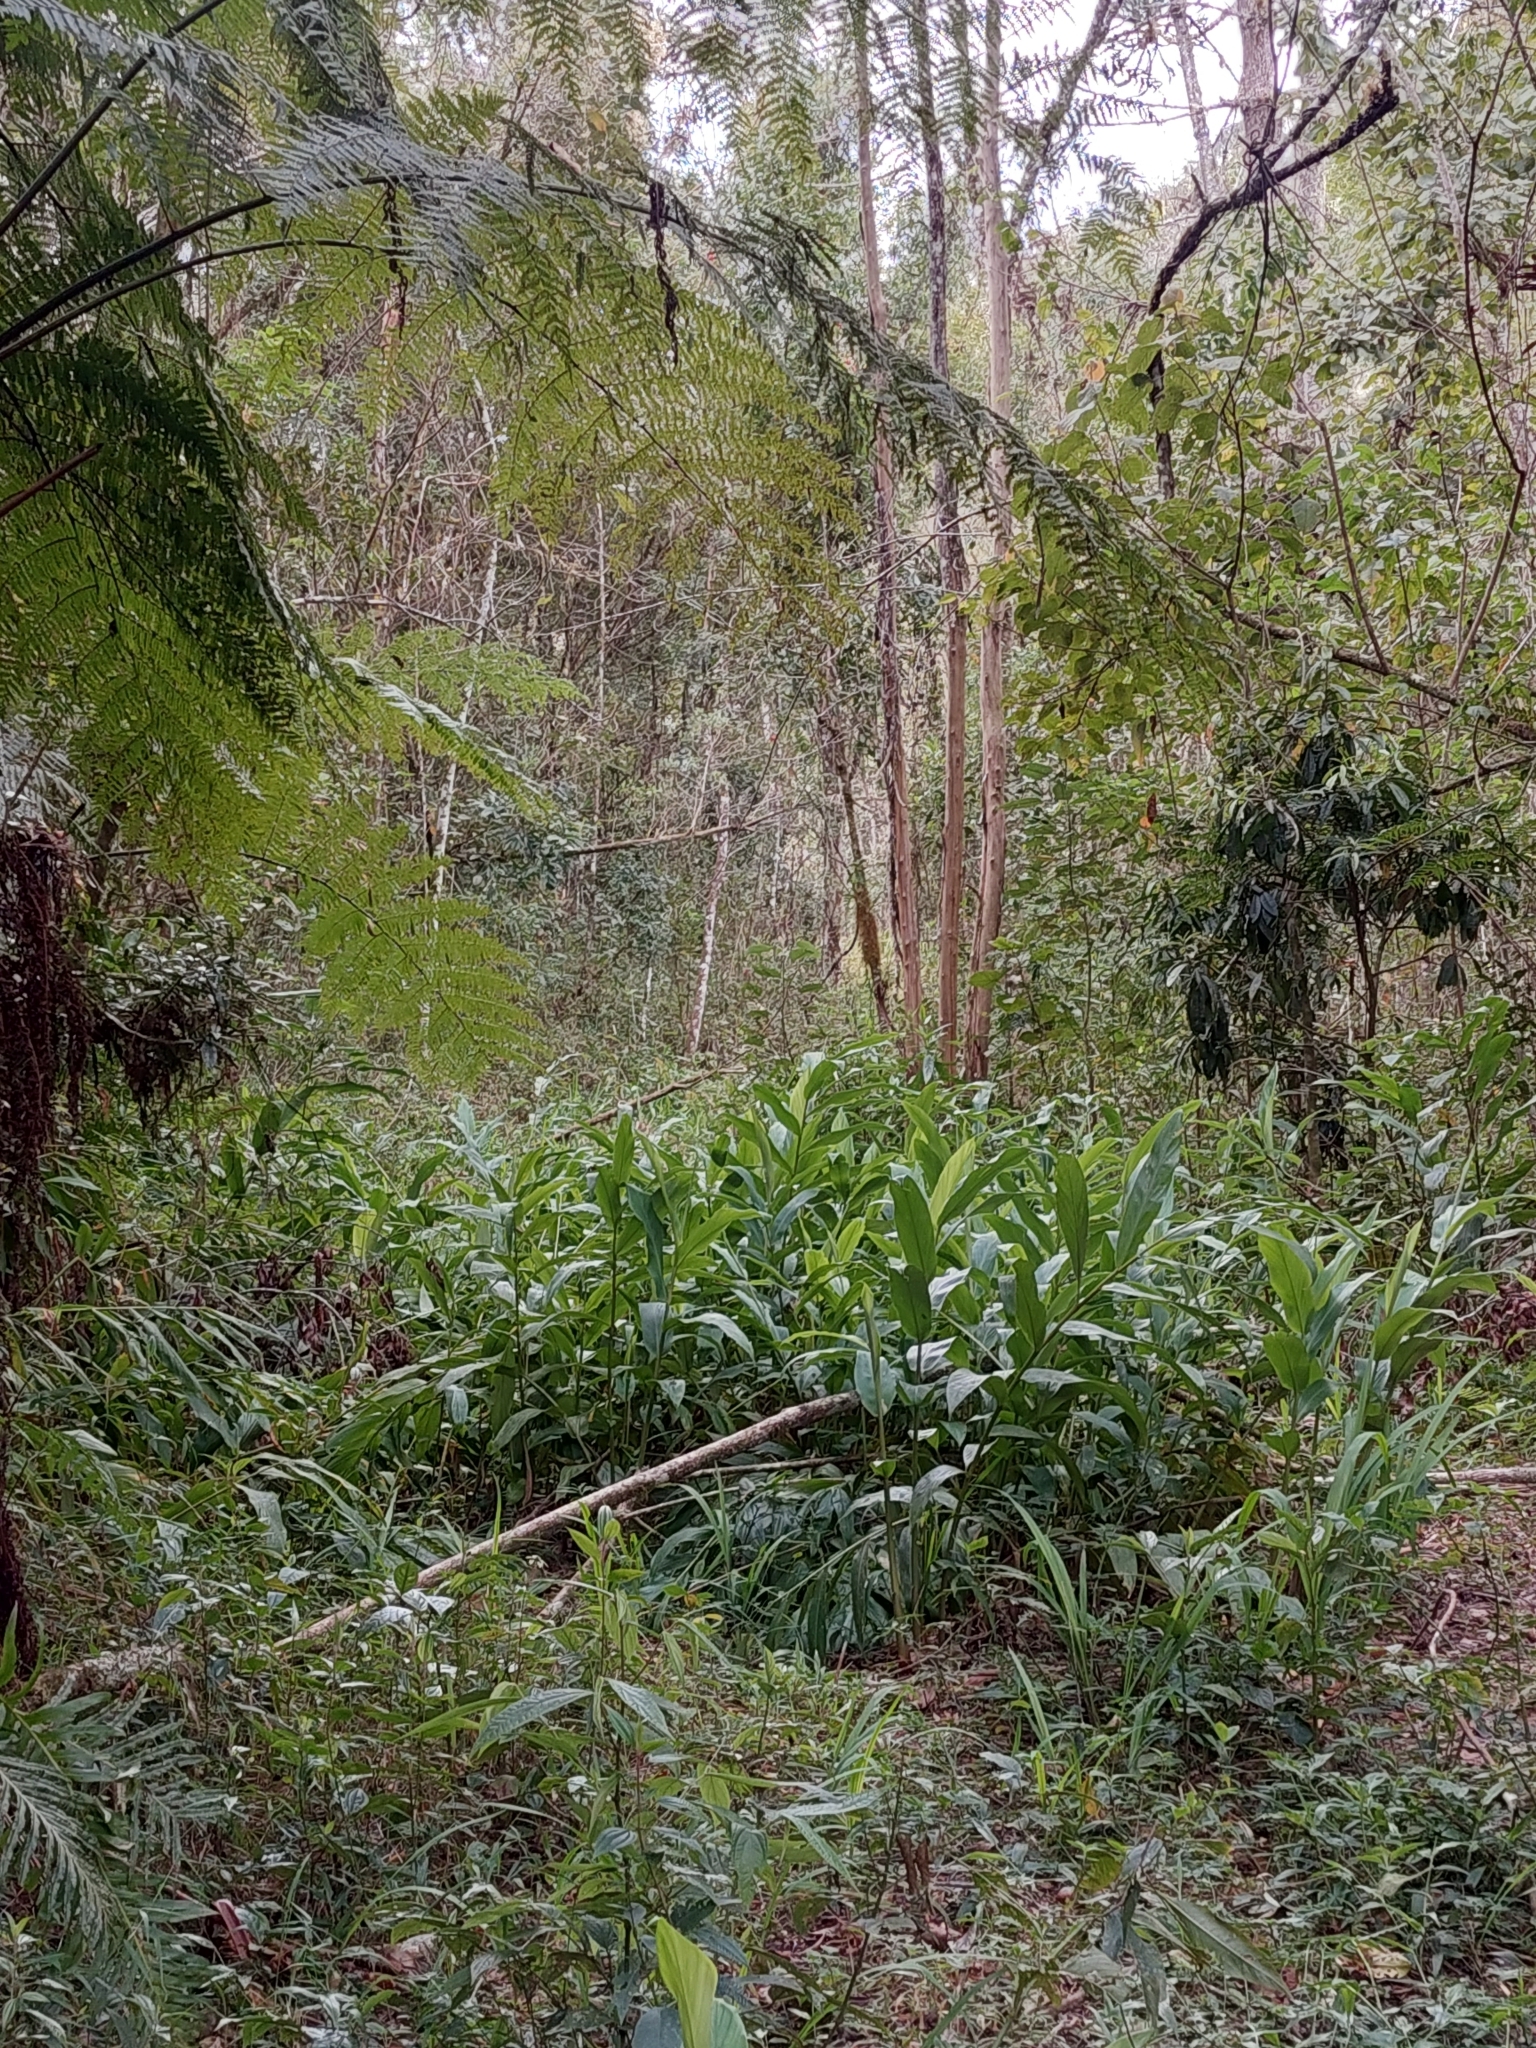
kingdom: Plantae
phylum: Tracheophyta
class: Liliopsida
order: Zingiberales
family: Zingiberaceae
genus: Hedychium
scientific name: Hedychium coronarium
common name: White garland-lily
